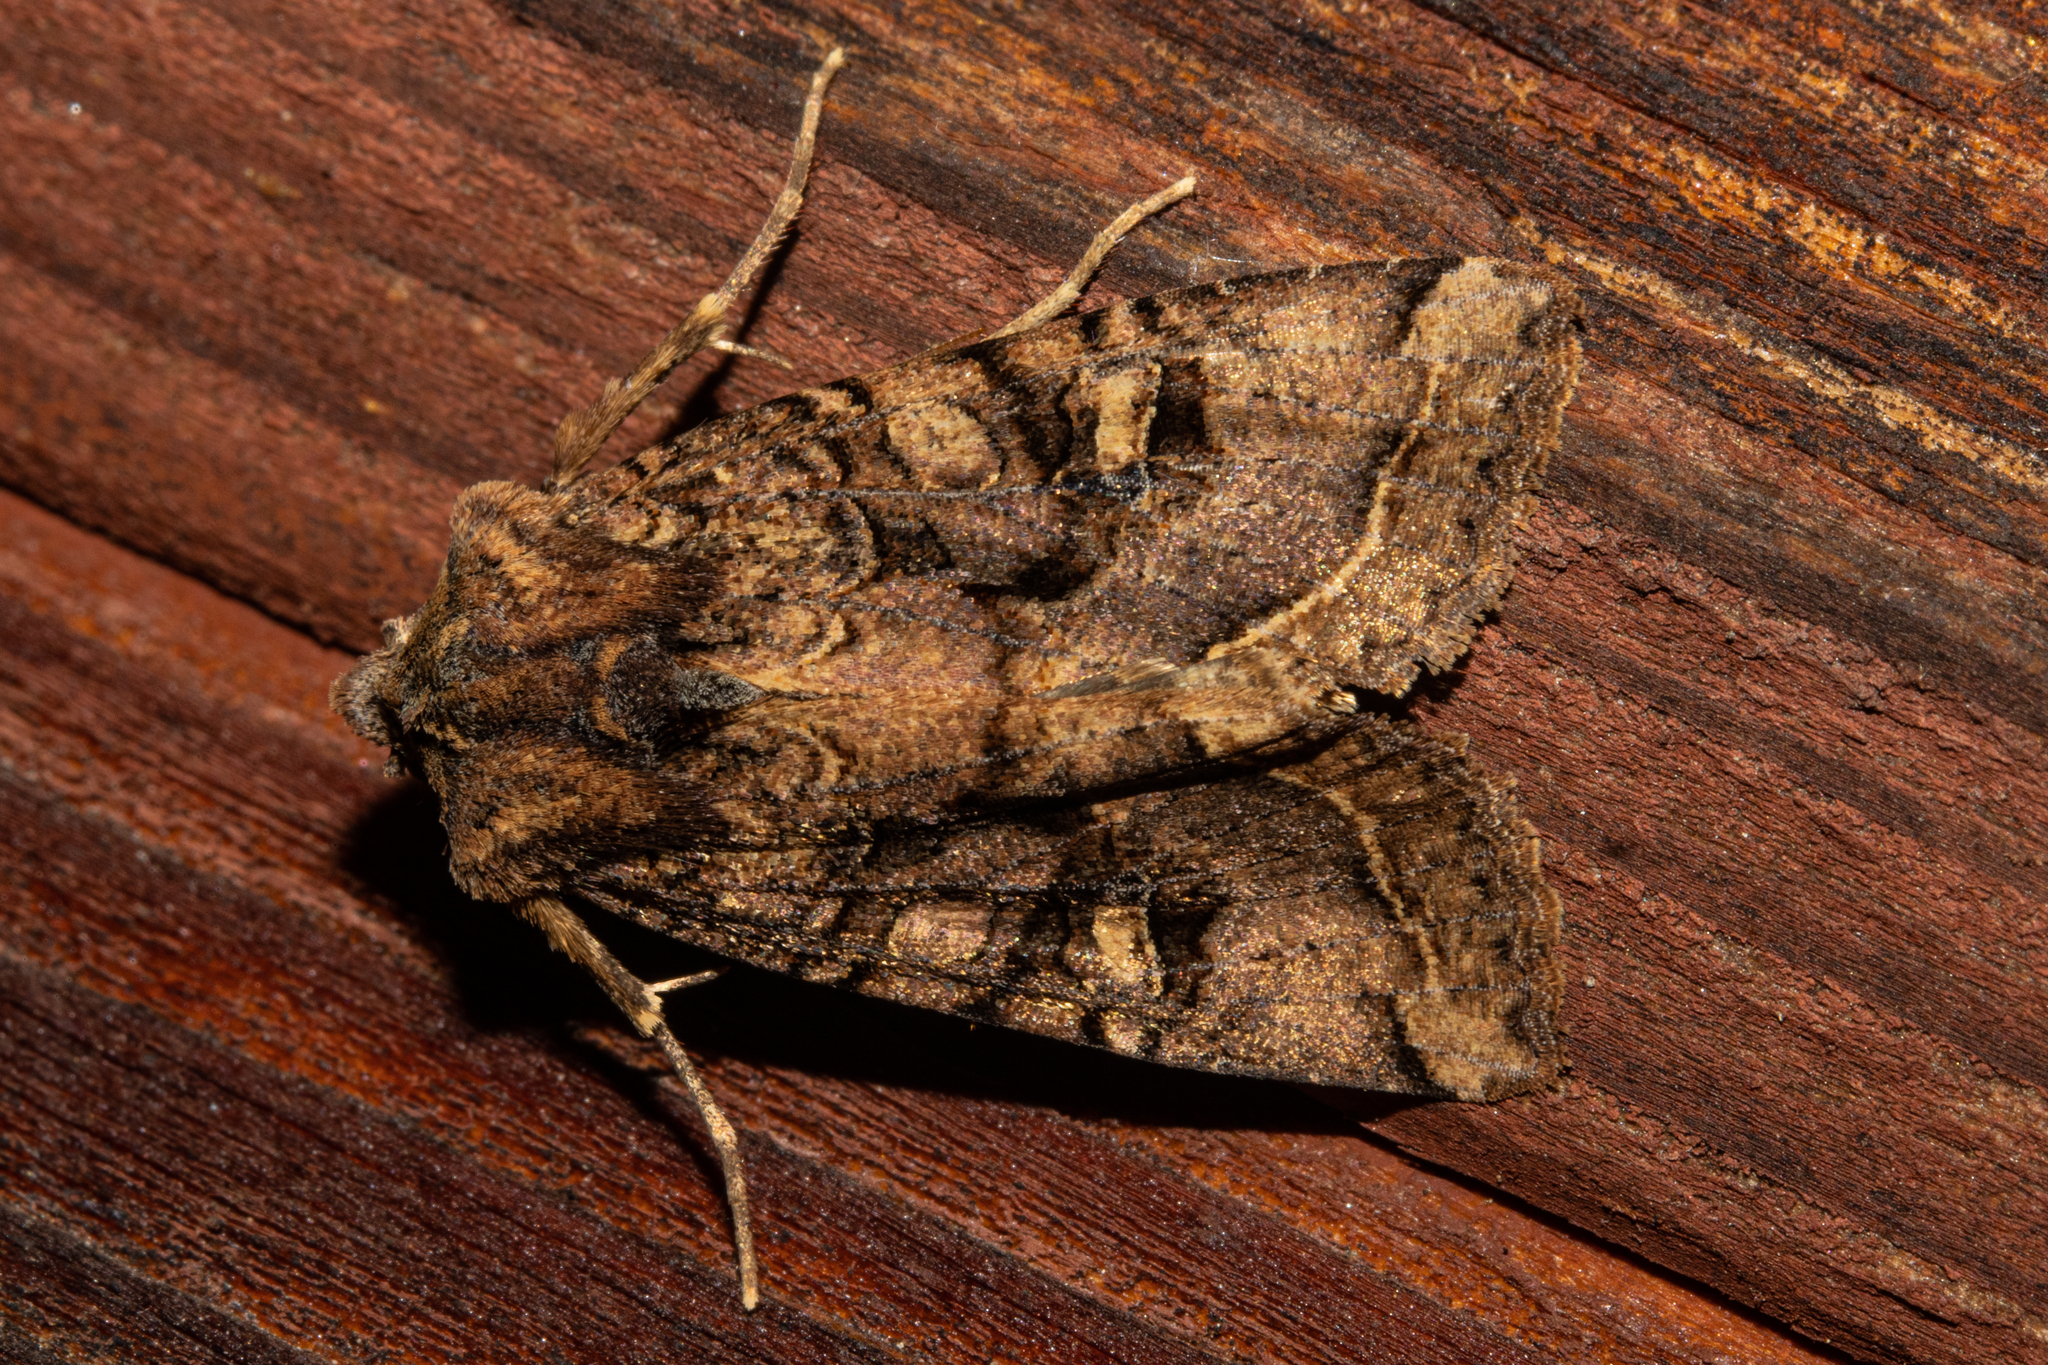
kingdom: Animalia
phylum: Arthropoda
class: Insecta
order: Lepidoptera
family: Noctuidae
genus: Meterana
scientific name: Meterana tartaraea
